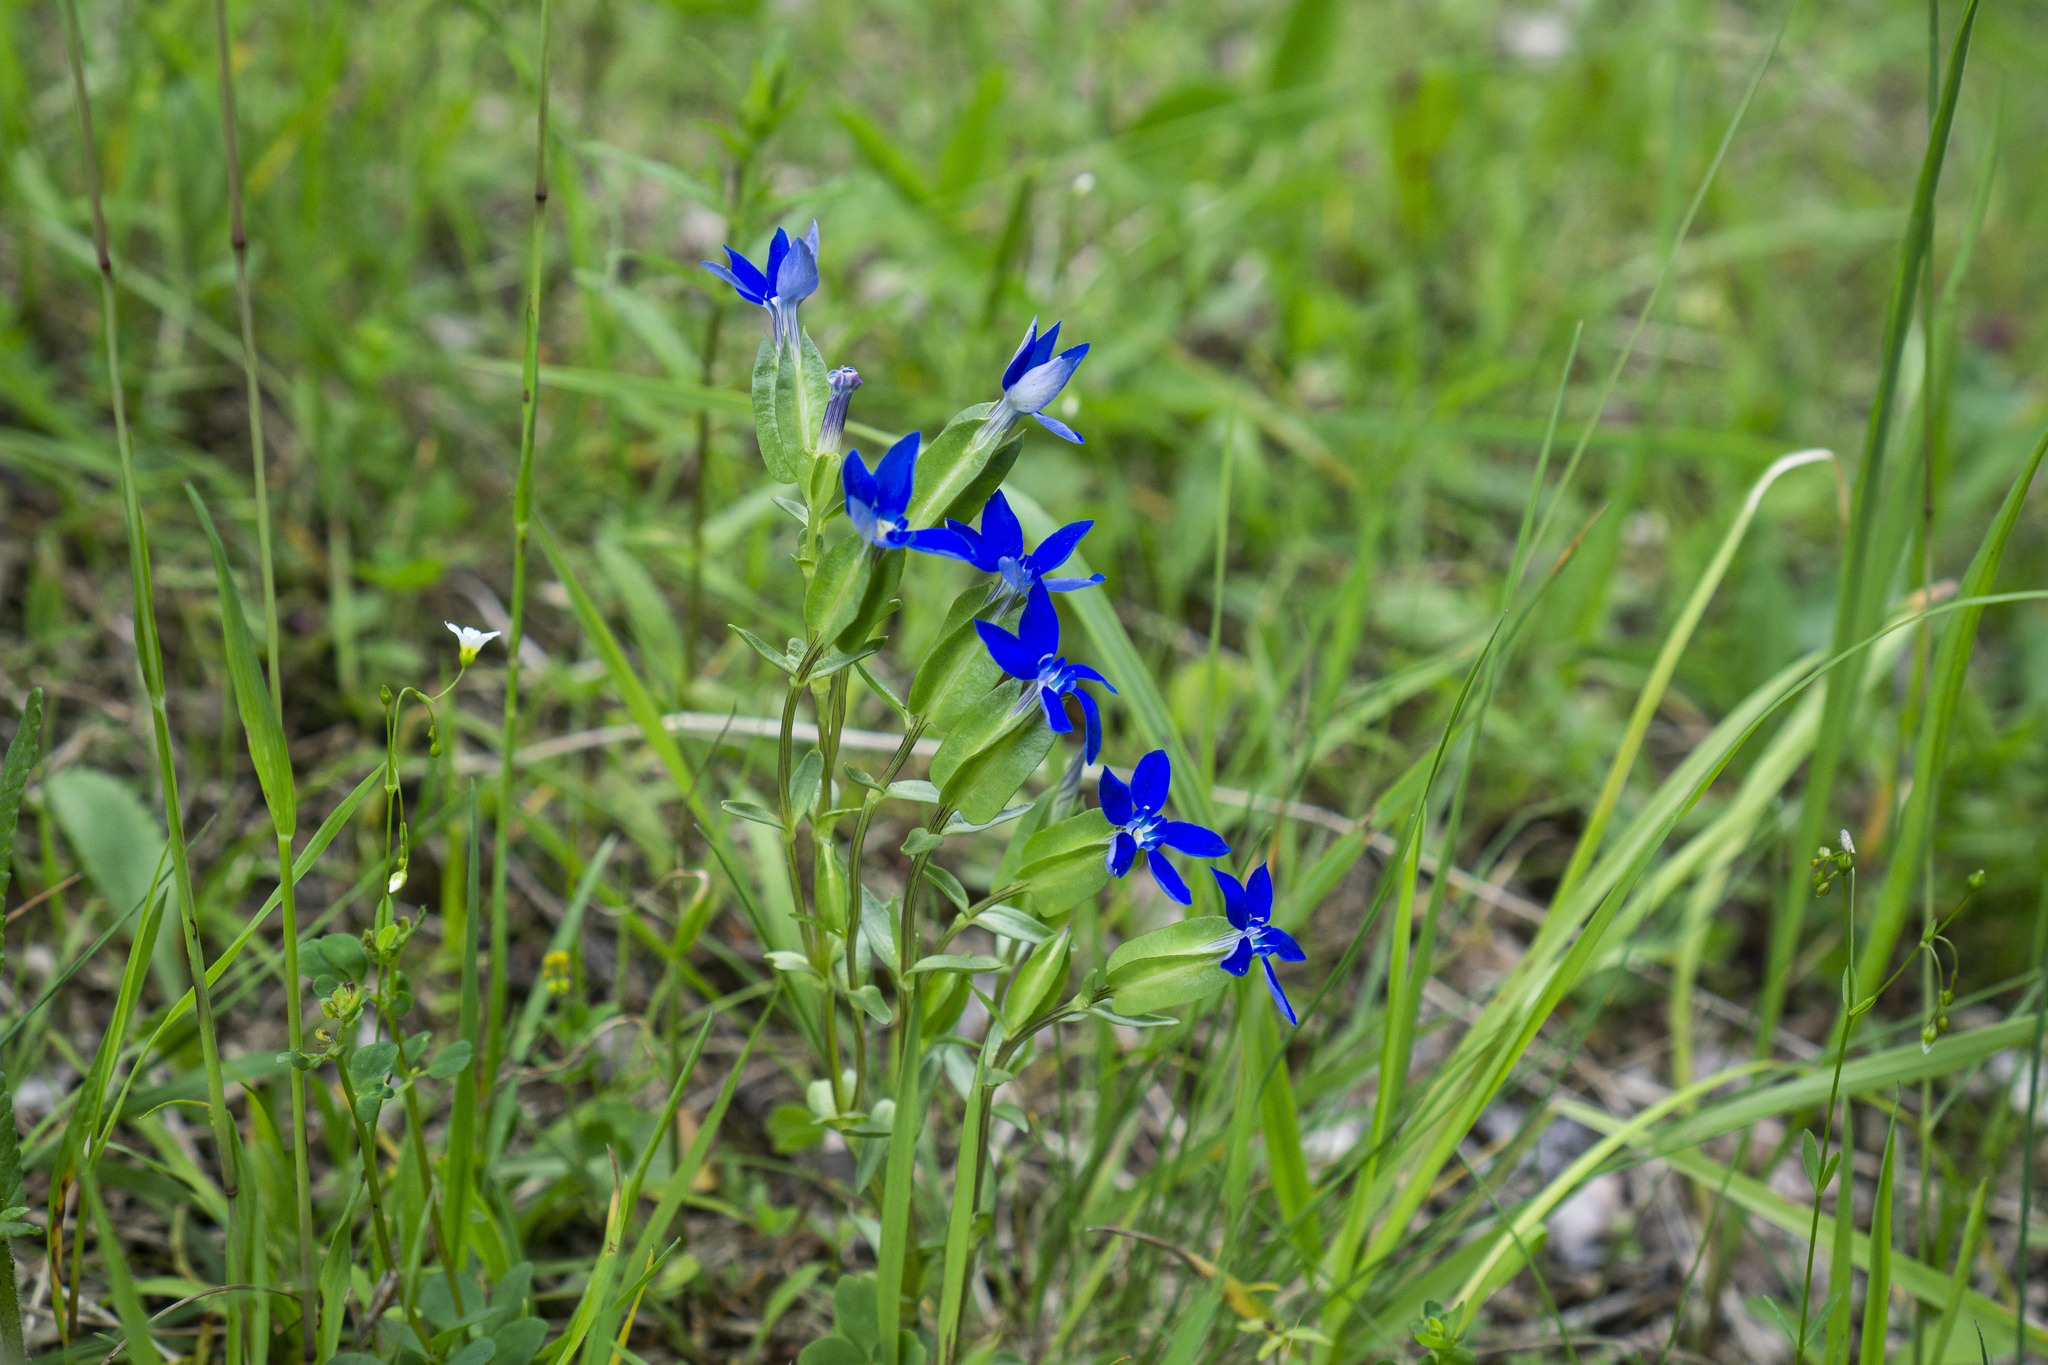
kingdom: Plantae
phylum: Tracheophyta
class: Magnoliopsida
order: Gentianales
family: Gentianaceae
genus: Gentiana
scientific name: Gentiana utriculosa
